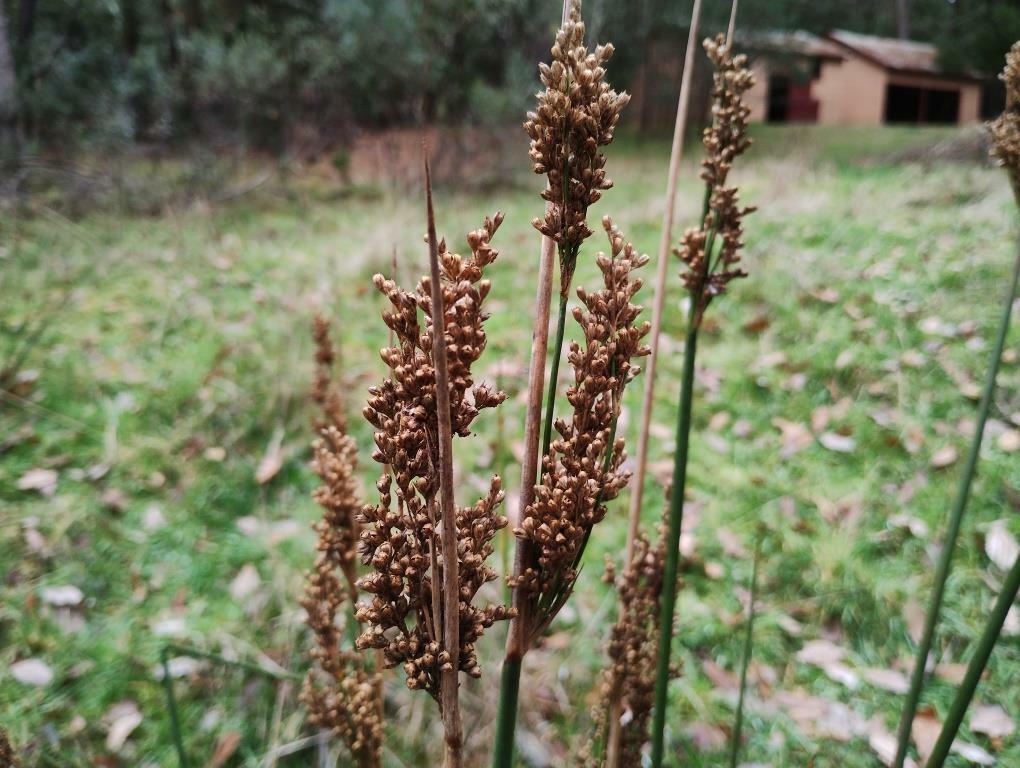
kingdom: Plantae
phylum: Tracheophyta
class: Liliopsida
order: Poales
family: Juncaceae
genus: Juncus
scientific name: Juncus pallidus
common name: Great soft-rush
